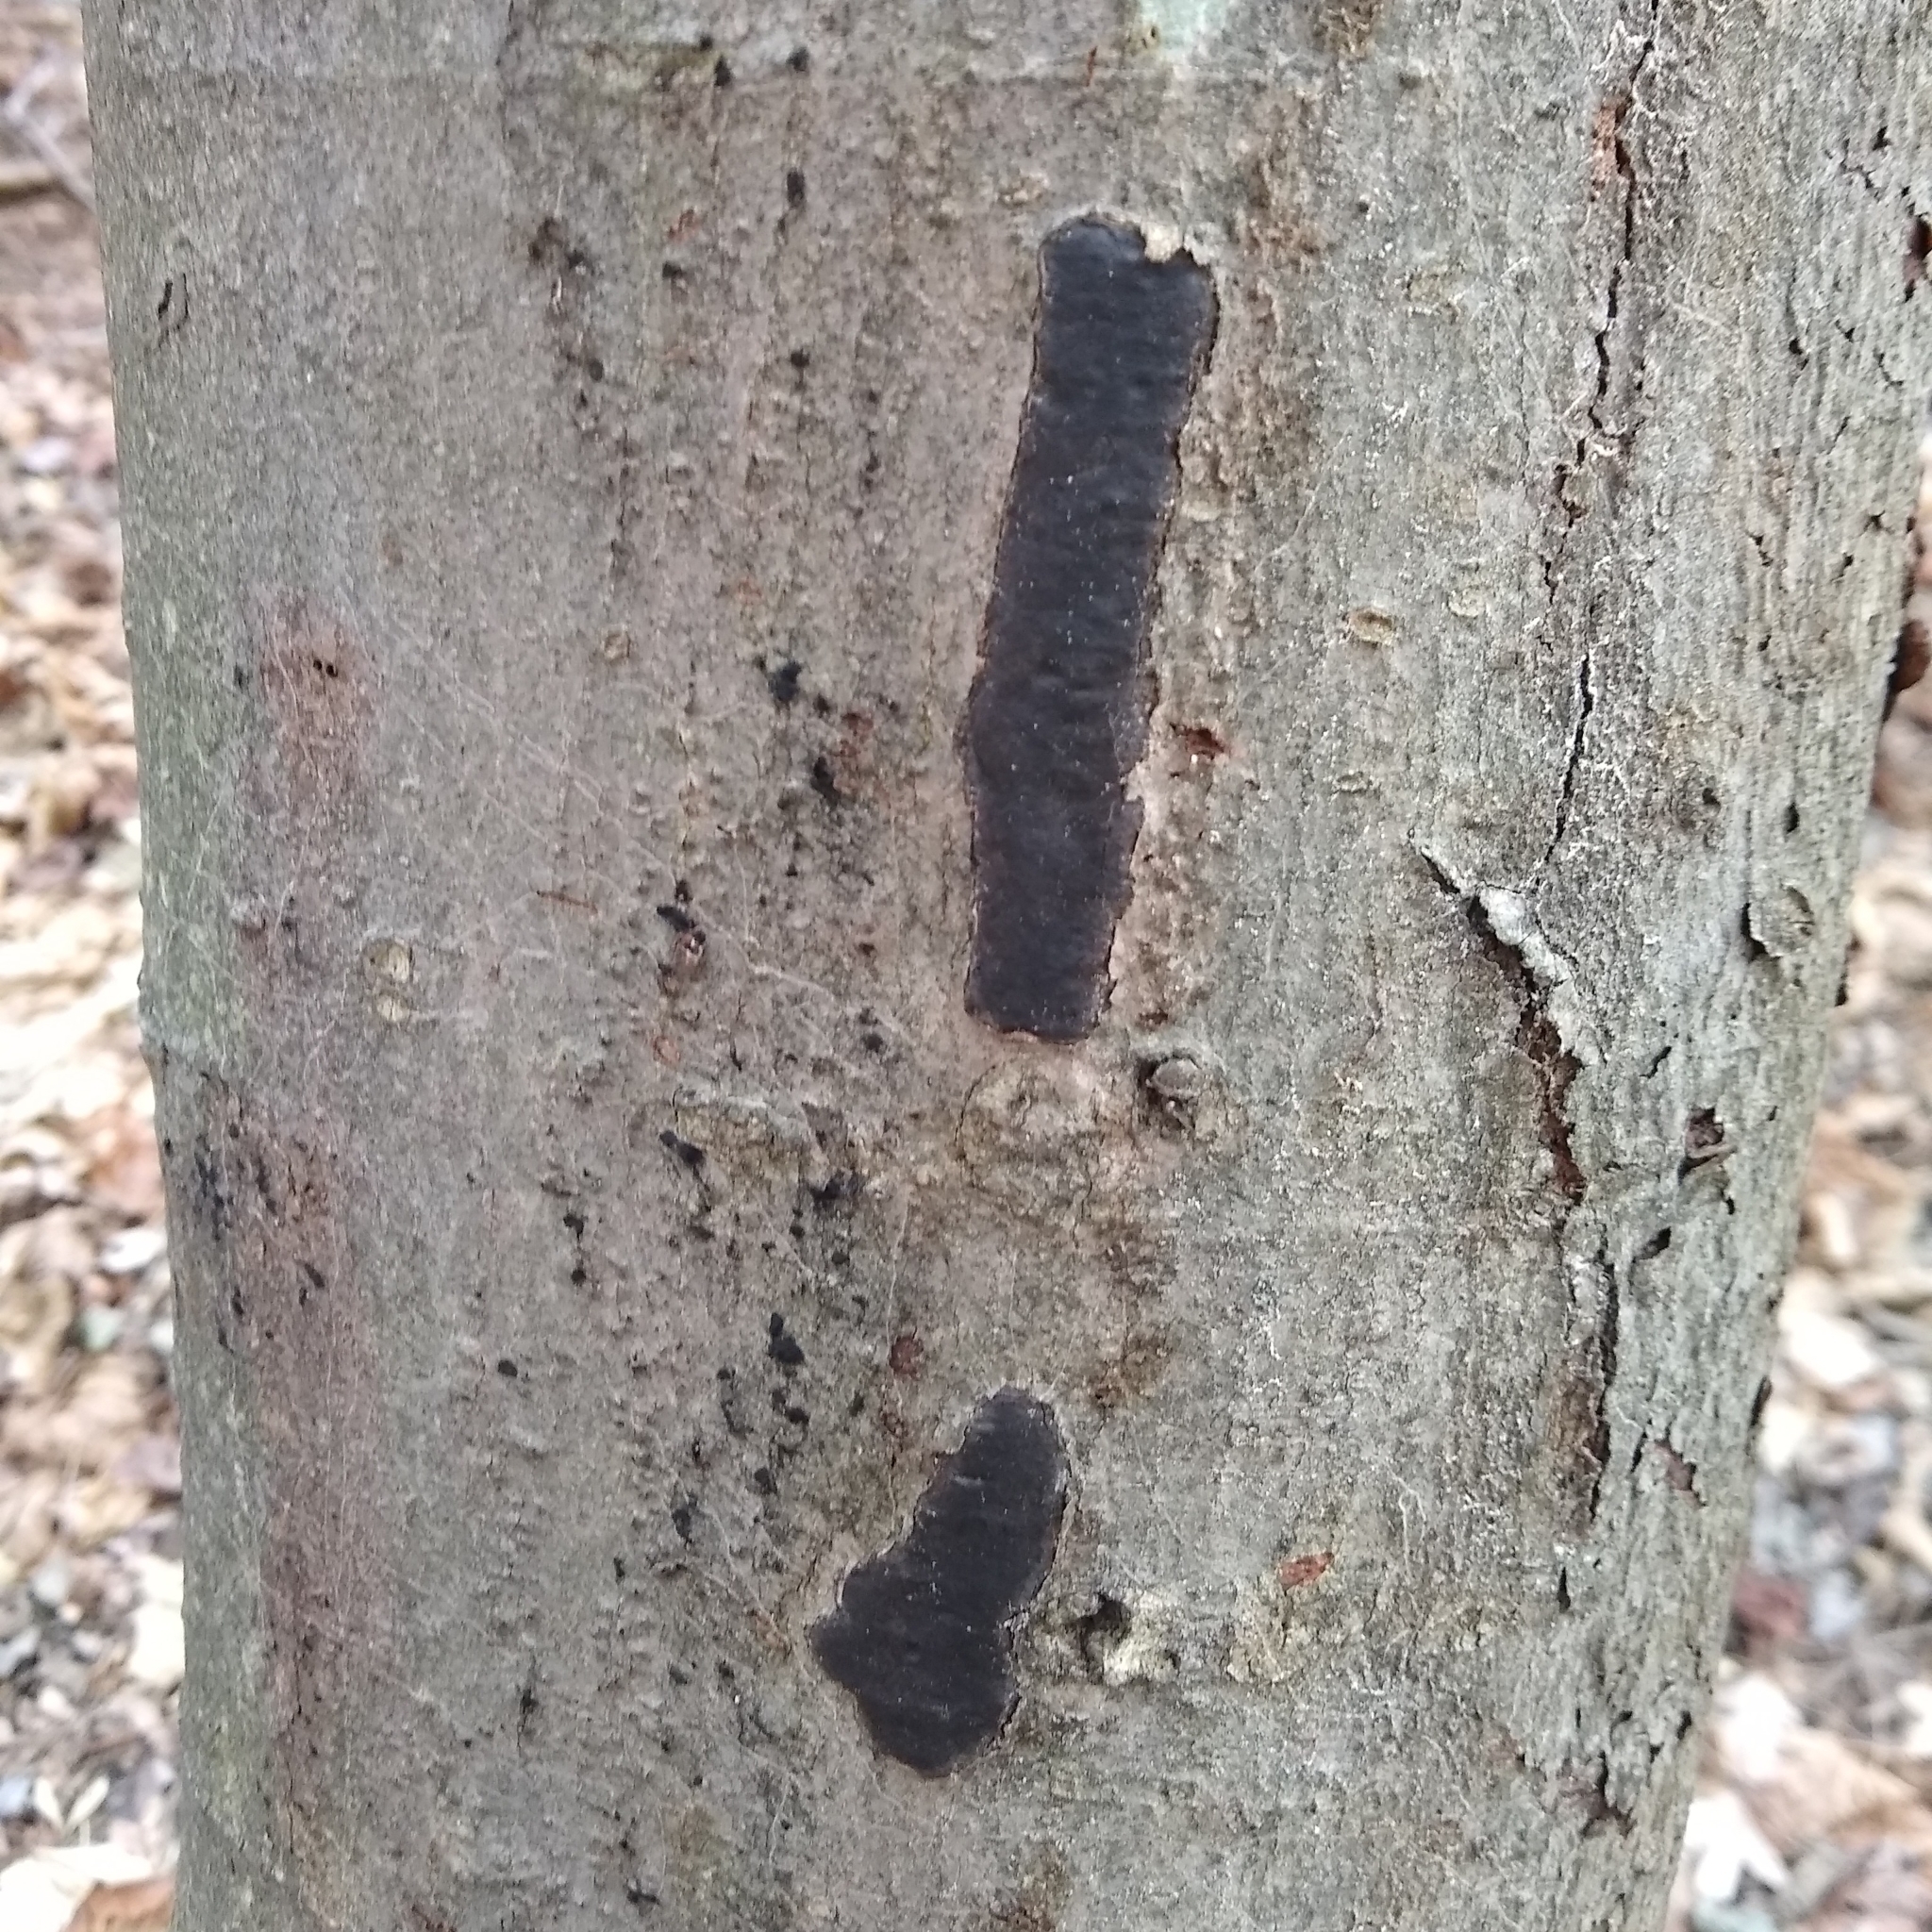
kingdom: Plantae
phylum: Tracheophyta
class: Magnoliopsida
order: Fagales
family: Fagaceae
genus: Fagus
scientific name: Fagus grandifolia
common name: American beech
